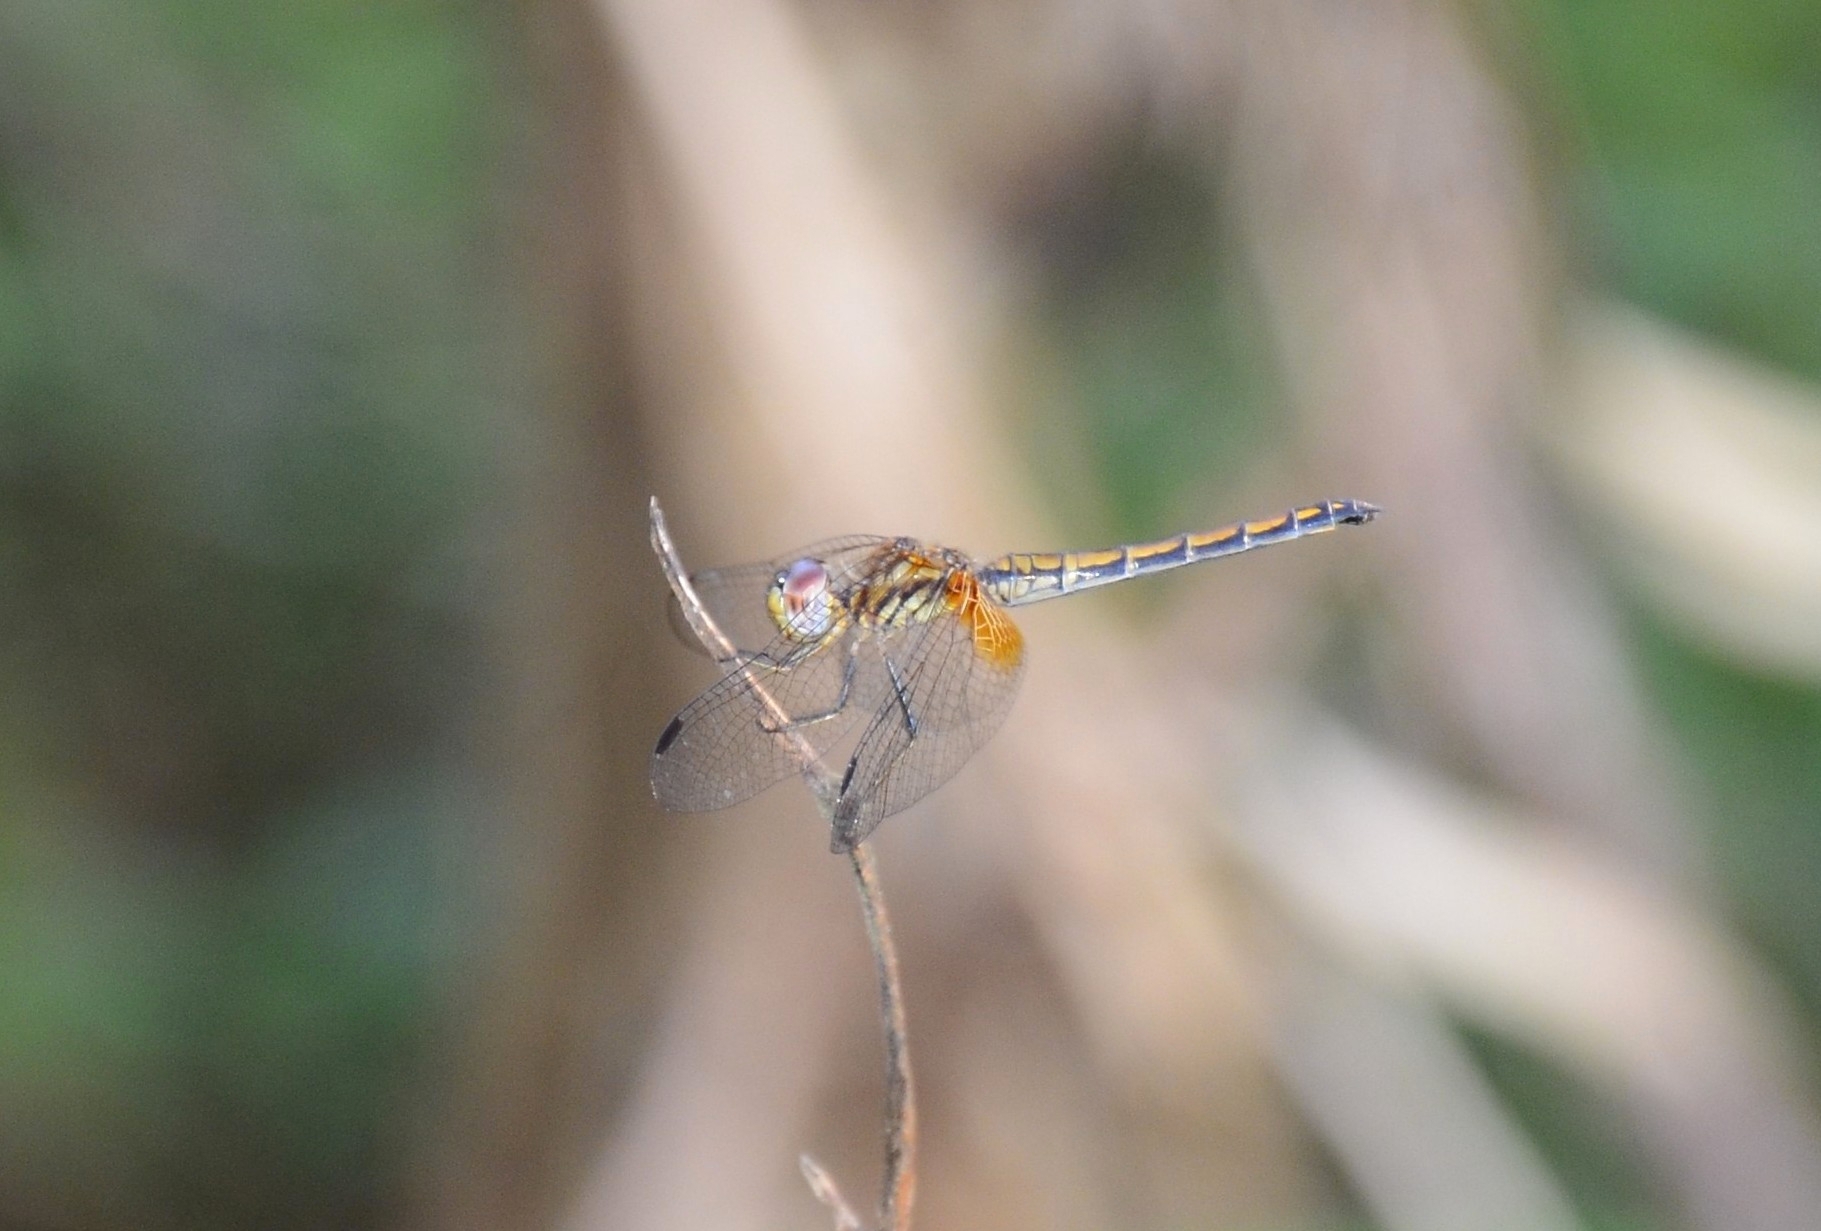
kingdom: Animalia
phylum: Arthropoda
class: Insecta
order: Odonata
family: Libellulidae
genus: Trithemis
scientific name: Trithemis aurora
